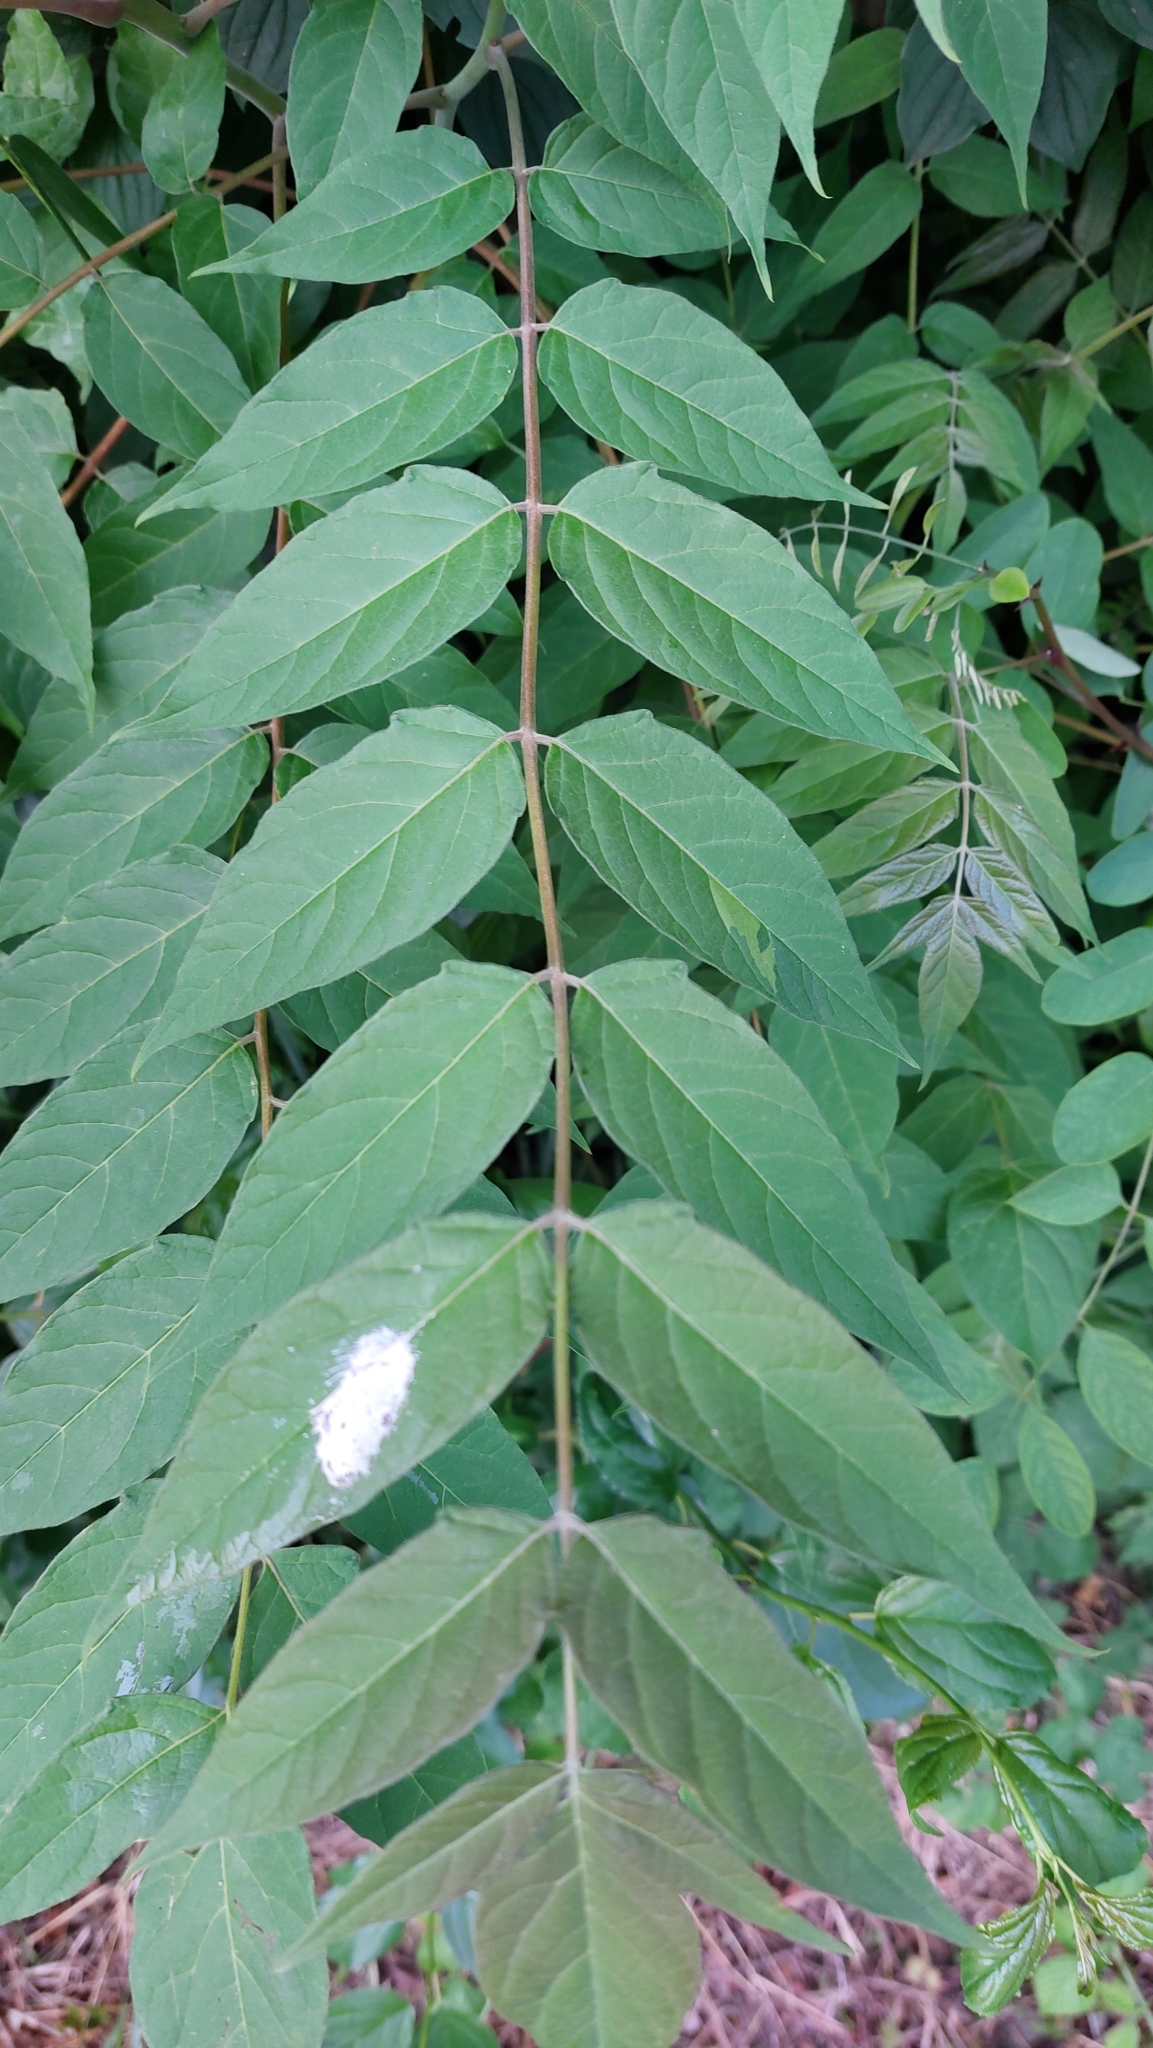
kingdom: Plantae
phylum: Tracheophyta
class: Magnoliopsida
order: Sapindales
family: Simaroubaceae
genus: Ailanthus
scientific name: Ailanthus altissima
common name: Tree-of-heaven
